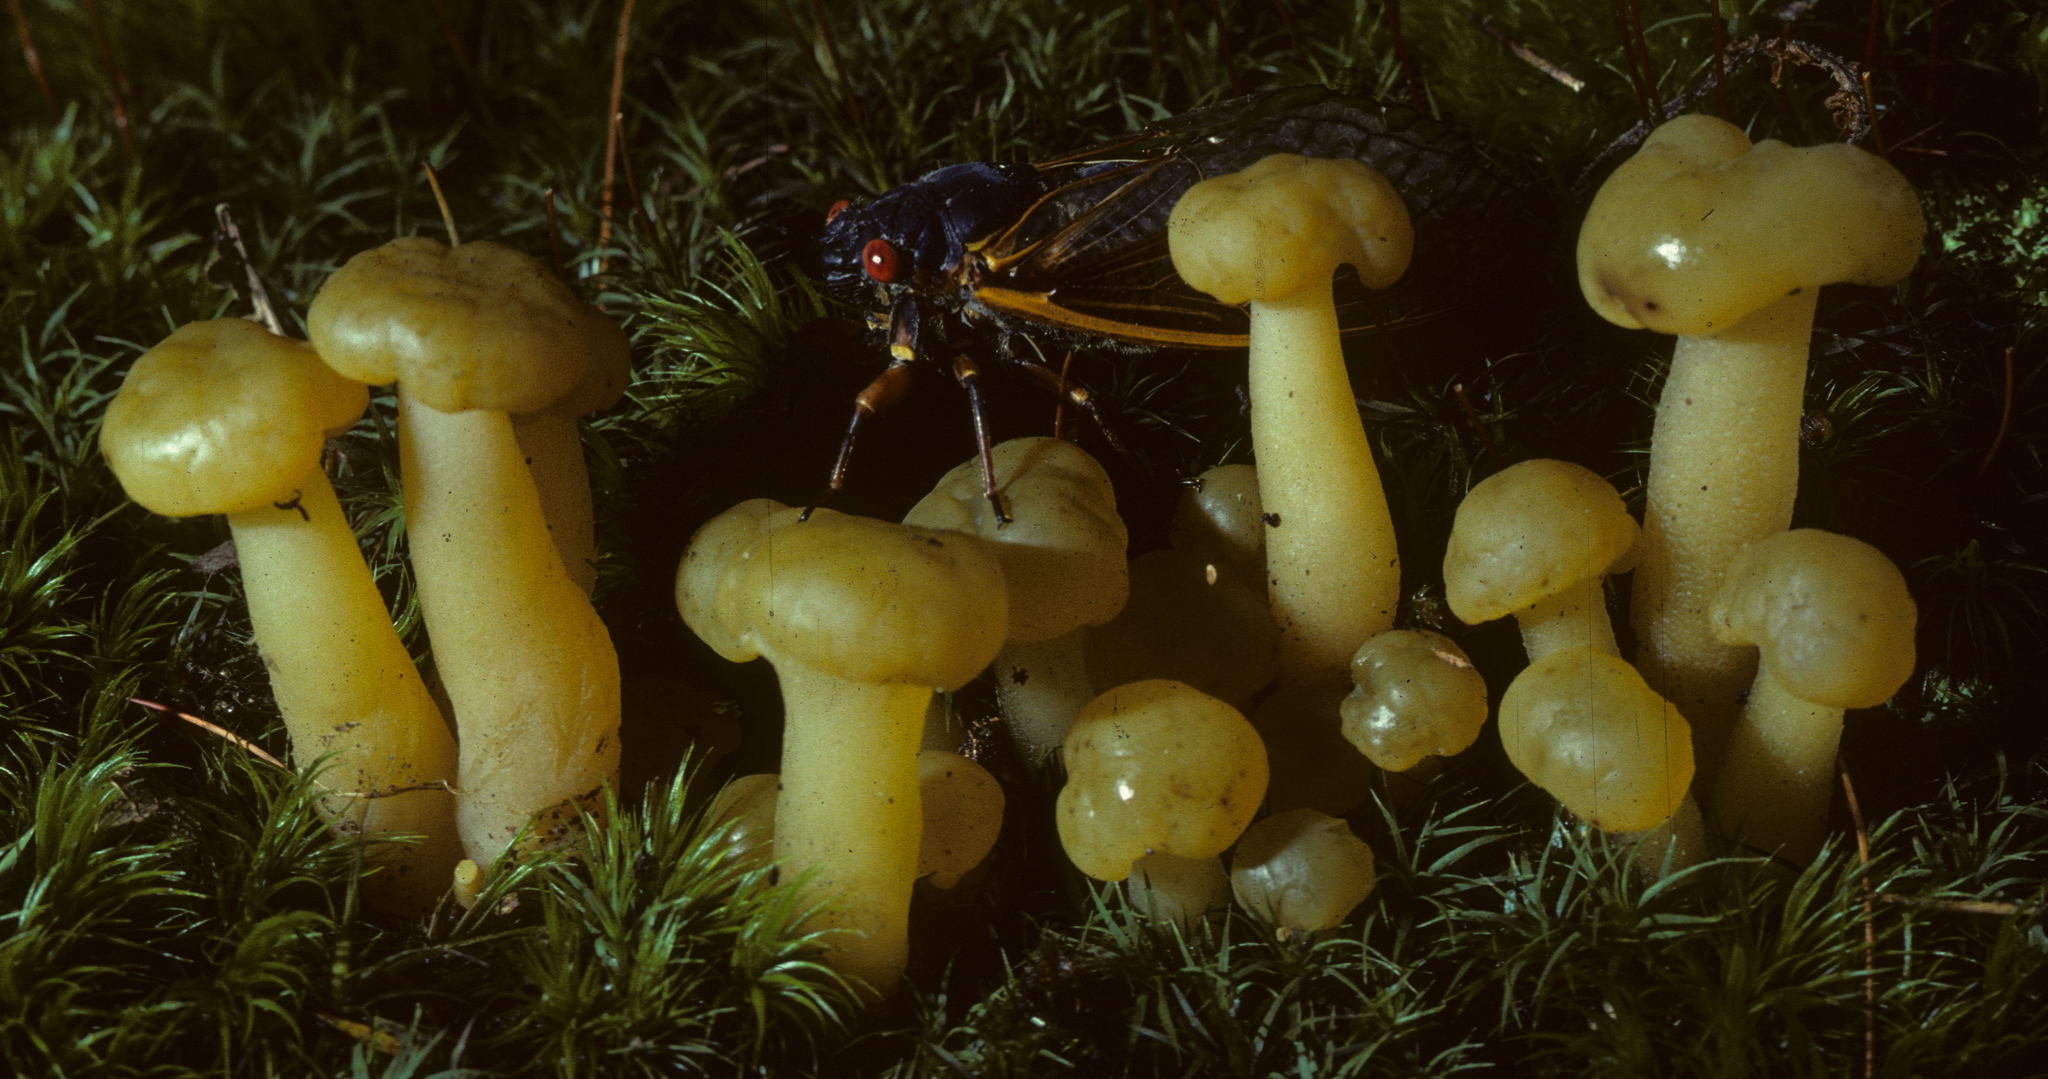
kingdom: Fungi
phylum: Ascomycota
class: Leotiomycetes
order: Leotiales
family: Leotiaceae
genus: Leotia
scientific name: Leotia lubrica
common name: Jellybaby
